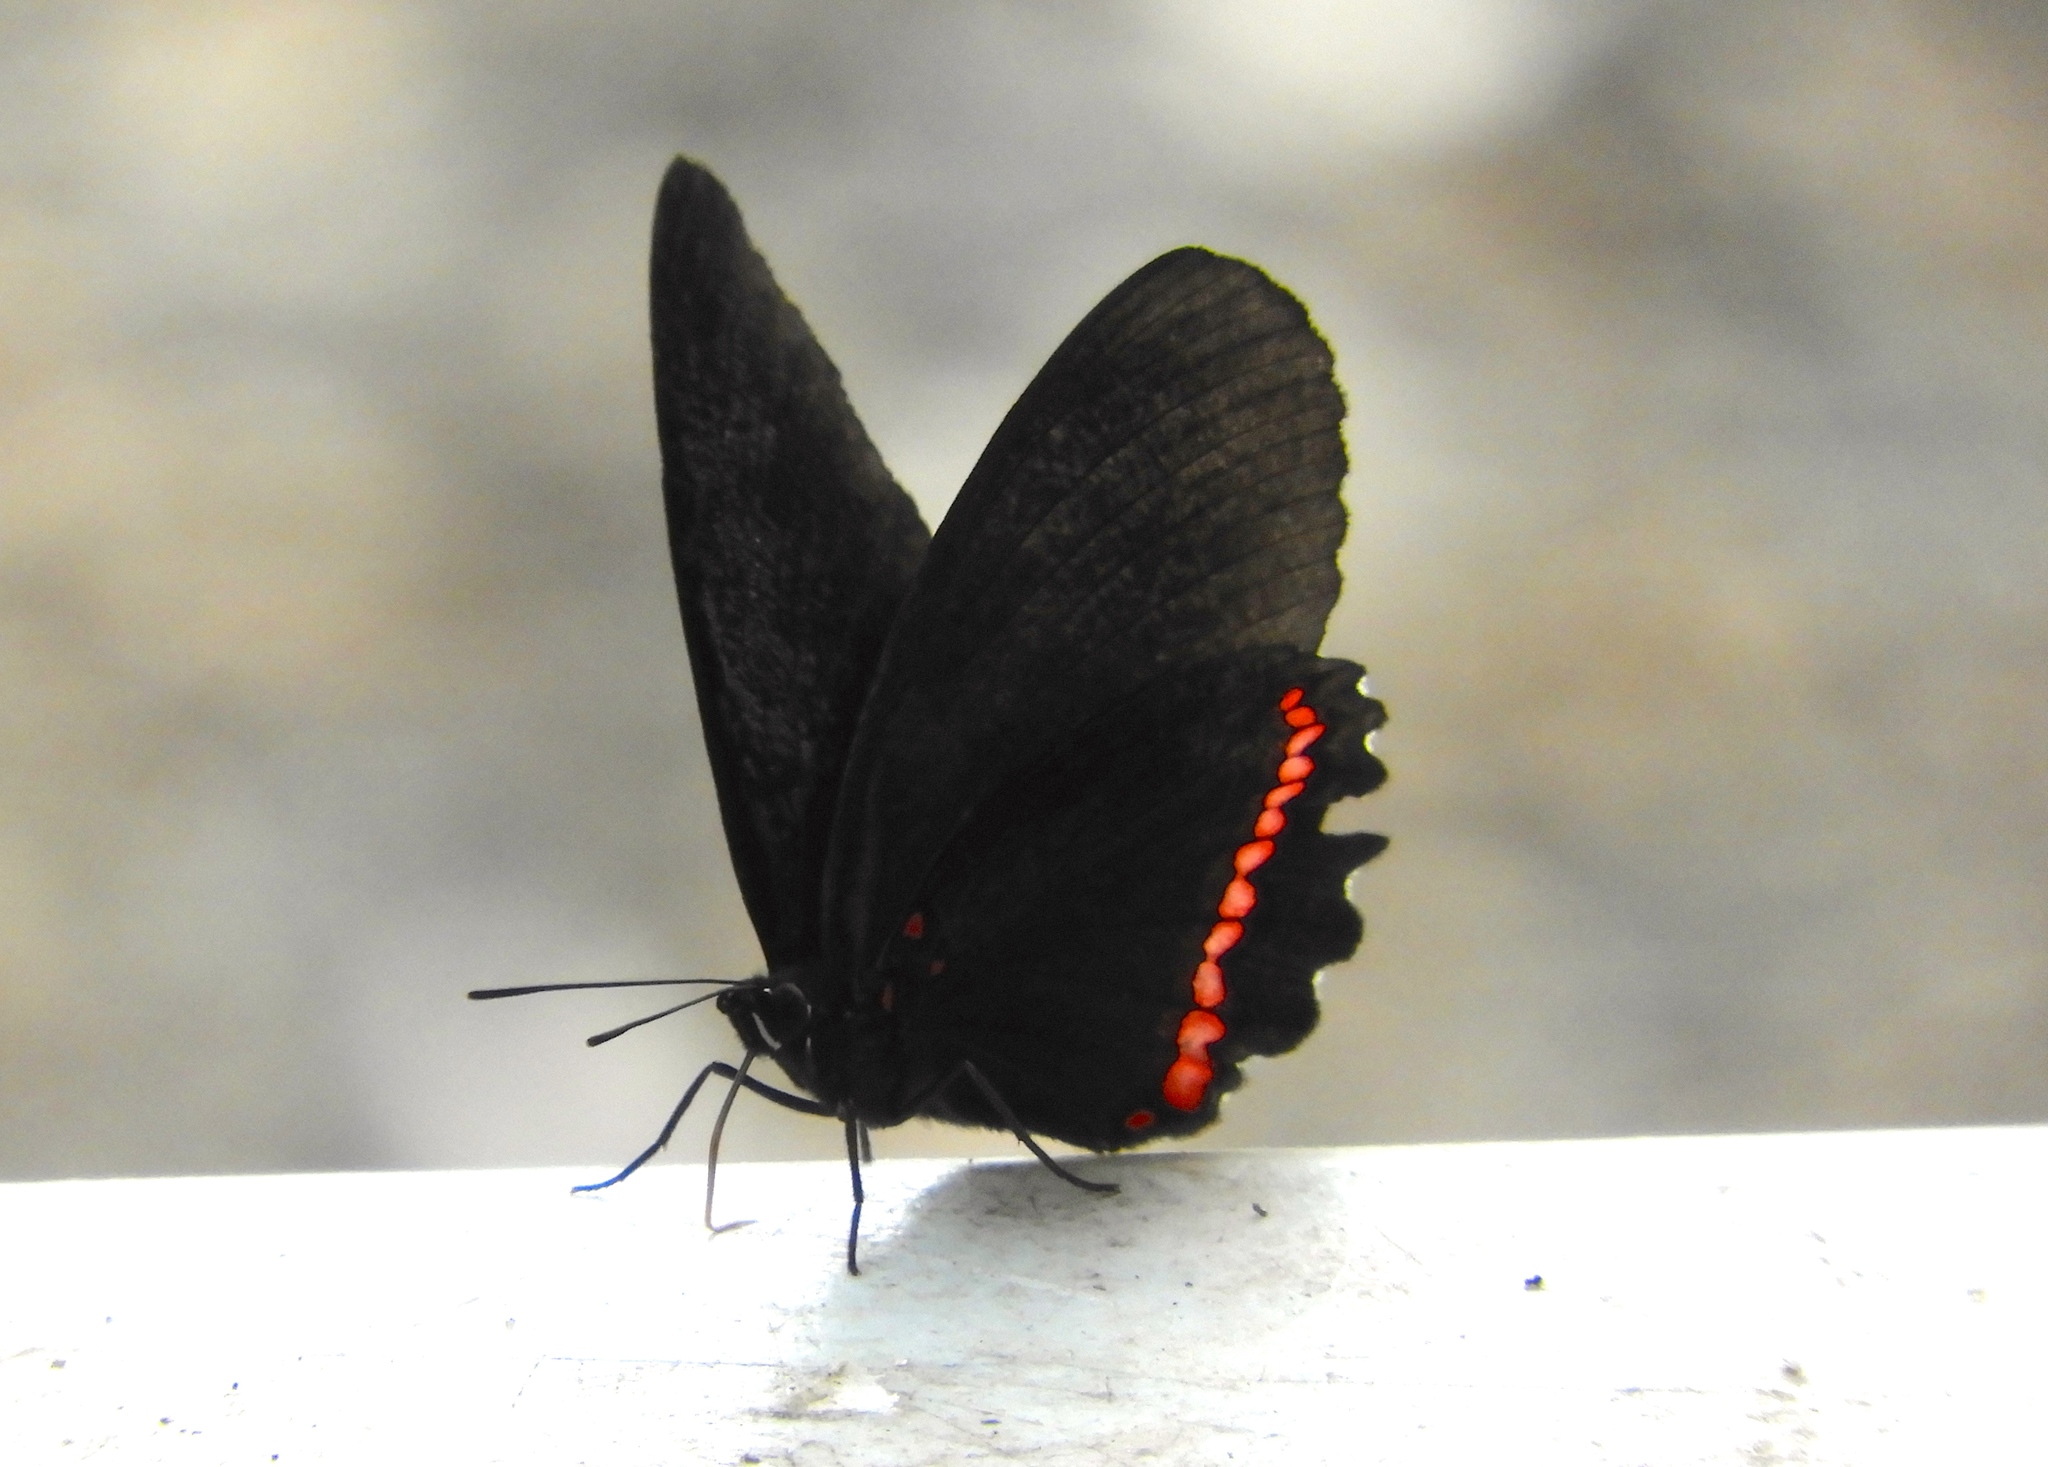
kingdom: Animalia
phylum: Arthropoda
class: Insecta
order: Lepidoptera
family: Nymphalidae
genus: Biblis
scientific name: Biblis
